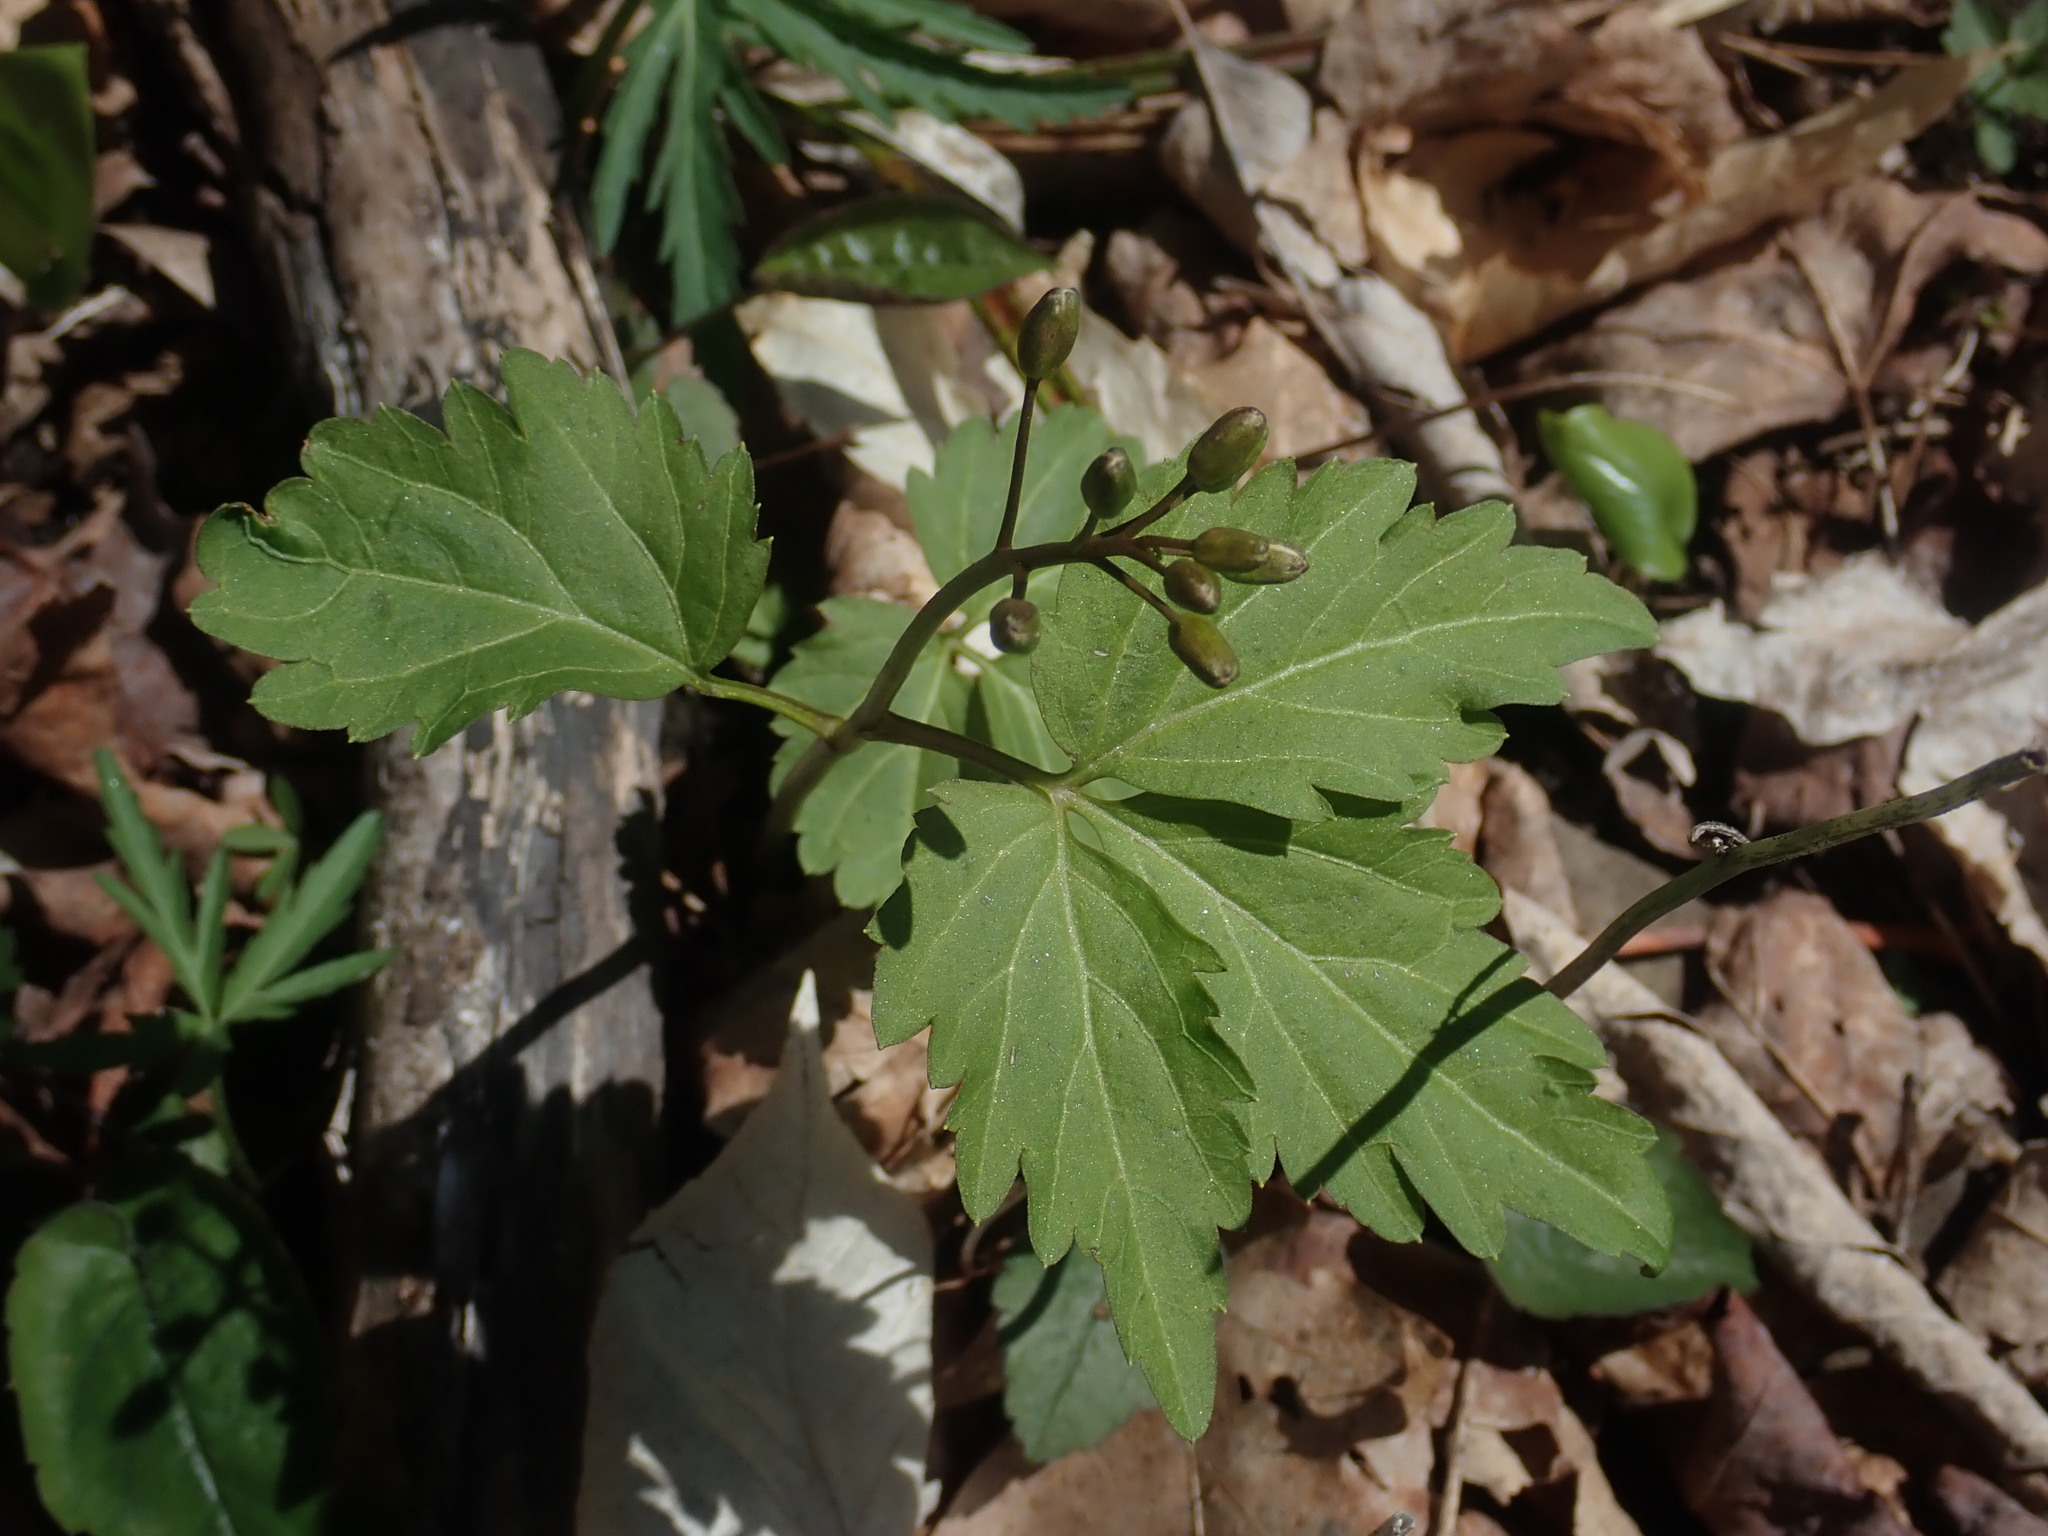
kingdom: Plantae
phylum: Tracheophyta
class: Magnoliopsida
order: Brassicales
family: Brassicaceae
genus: Cardamine
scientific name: Cardamine diphylla
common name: Broad-leaved toothwort
